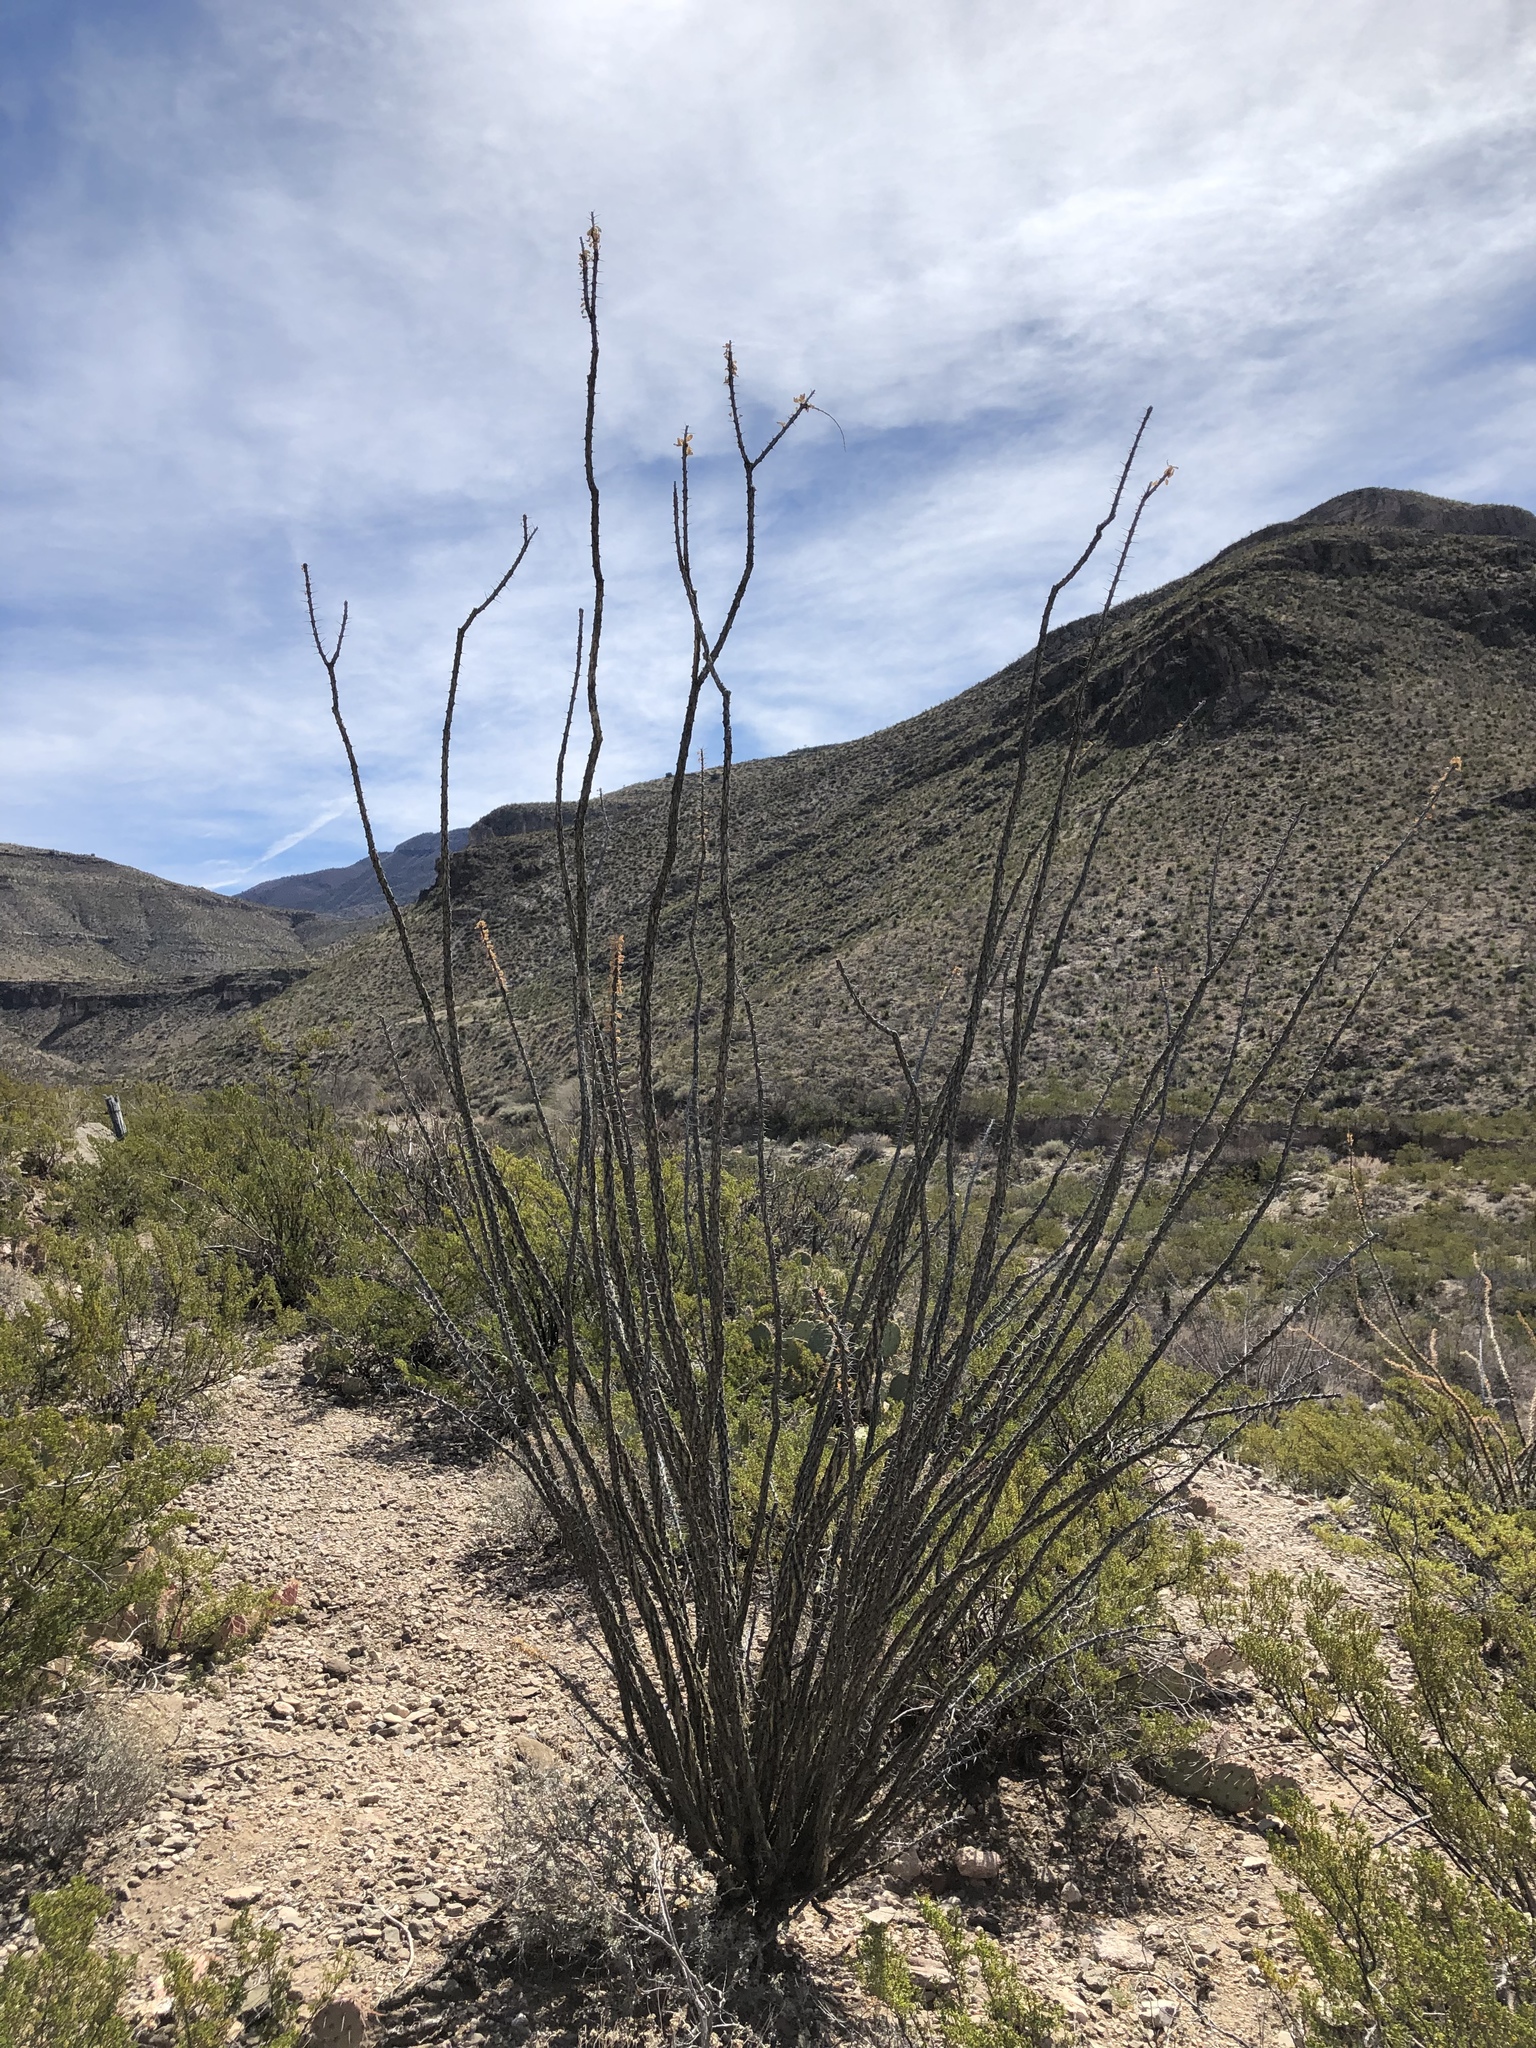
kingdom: Plantae
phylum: Tracheophyta
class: Magnoliopsida
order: Ericales
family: Fouquieriaceae
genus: Fouquieria
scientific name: Fouquieria splendens
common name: Vine-cactus
